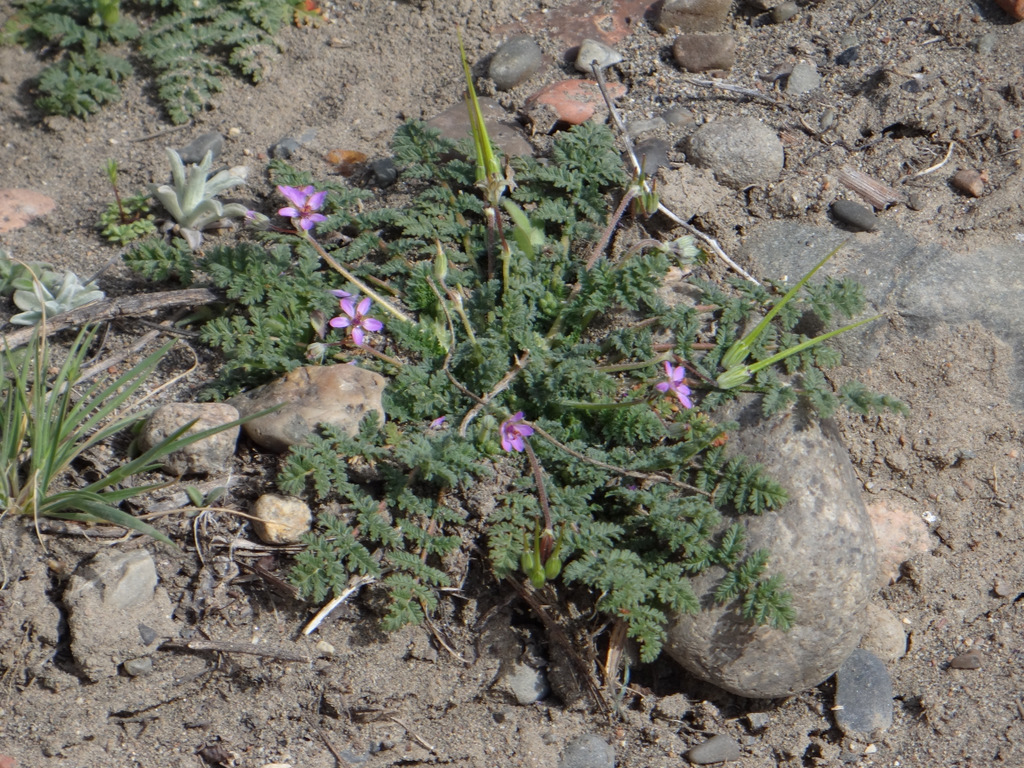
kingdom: Plantae
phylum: Tracheophyta
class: Magnoliopsida
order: Geraniales
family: Geraniaceae
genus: Erodium
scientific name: Erodium cicutarium
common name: Common stork's-bill
